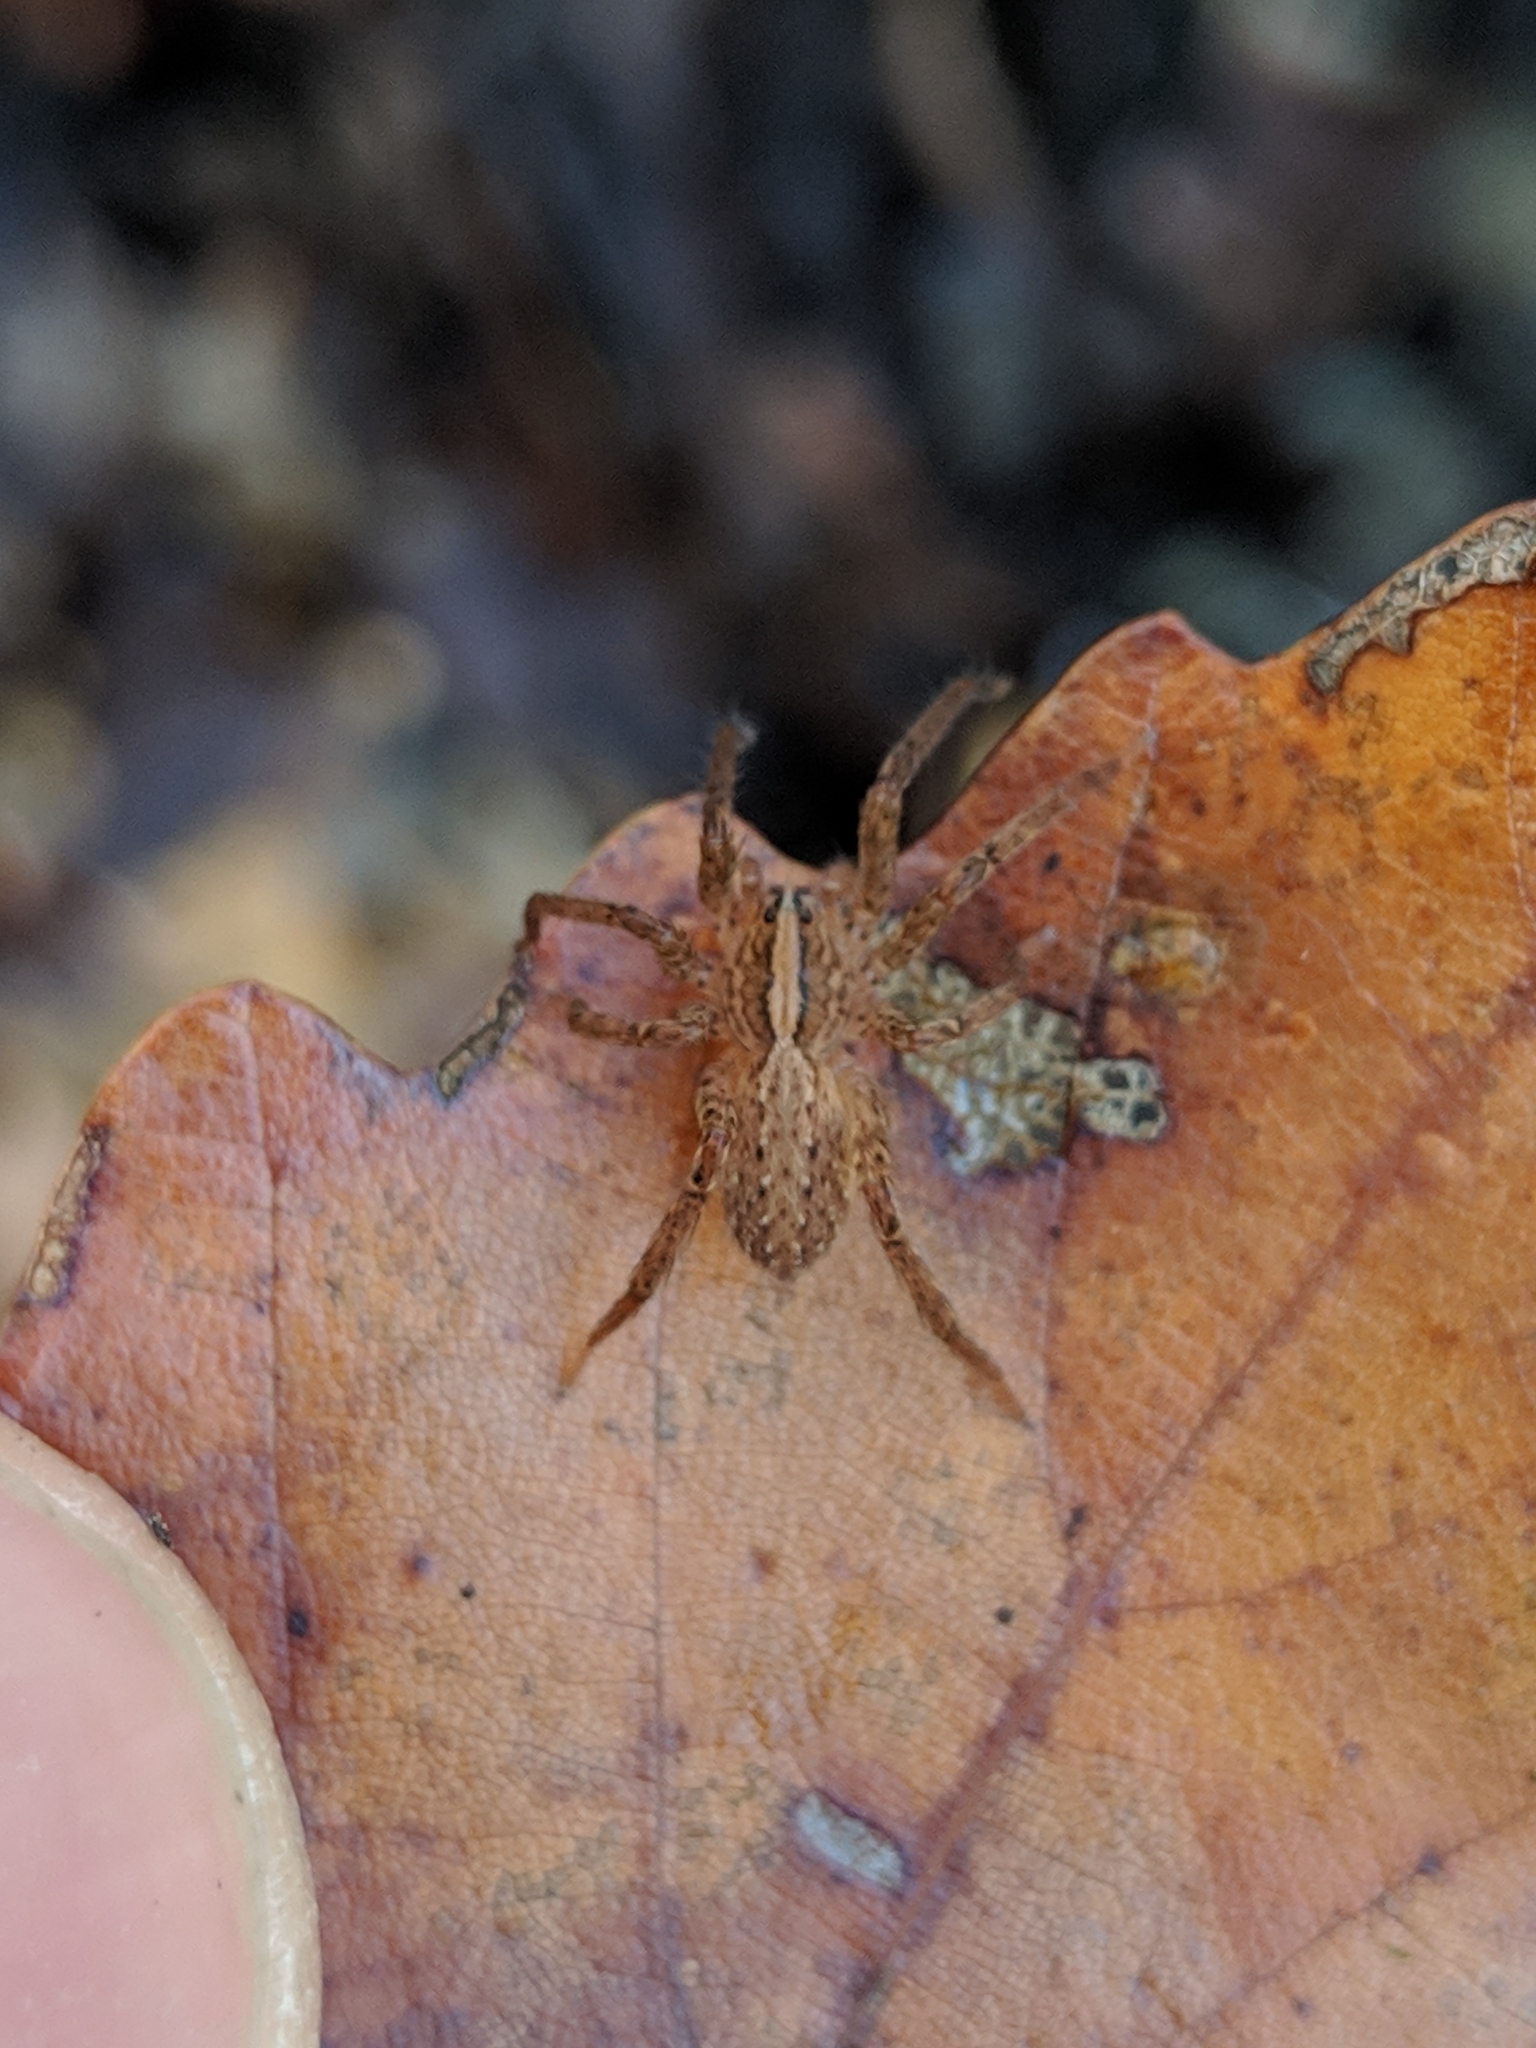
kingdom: Animalia
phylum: Arthropoda
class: Arachnida
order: Araneae
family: Ctenidae
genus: Anahita
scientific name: Anahita punctulata
